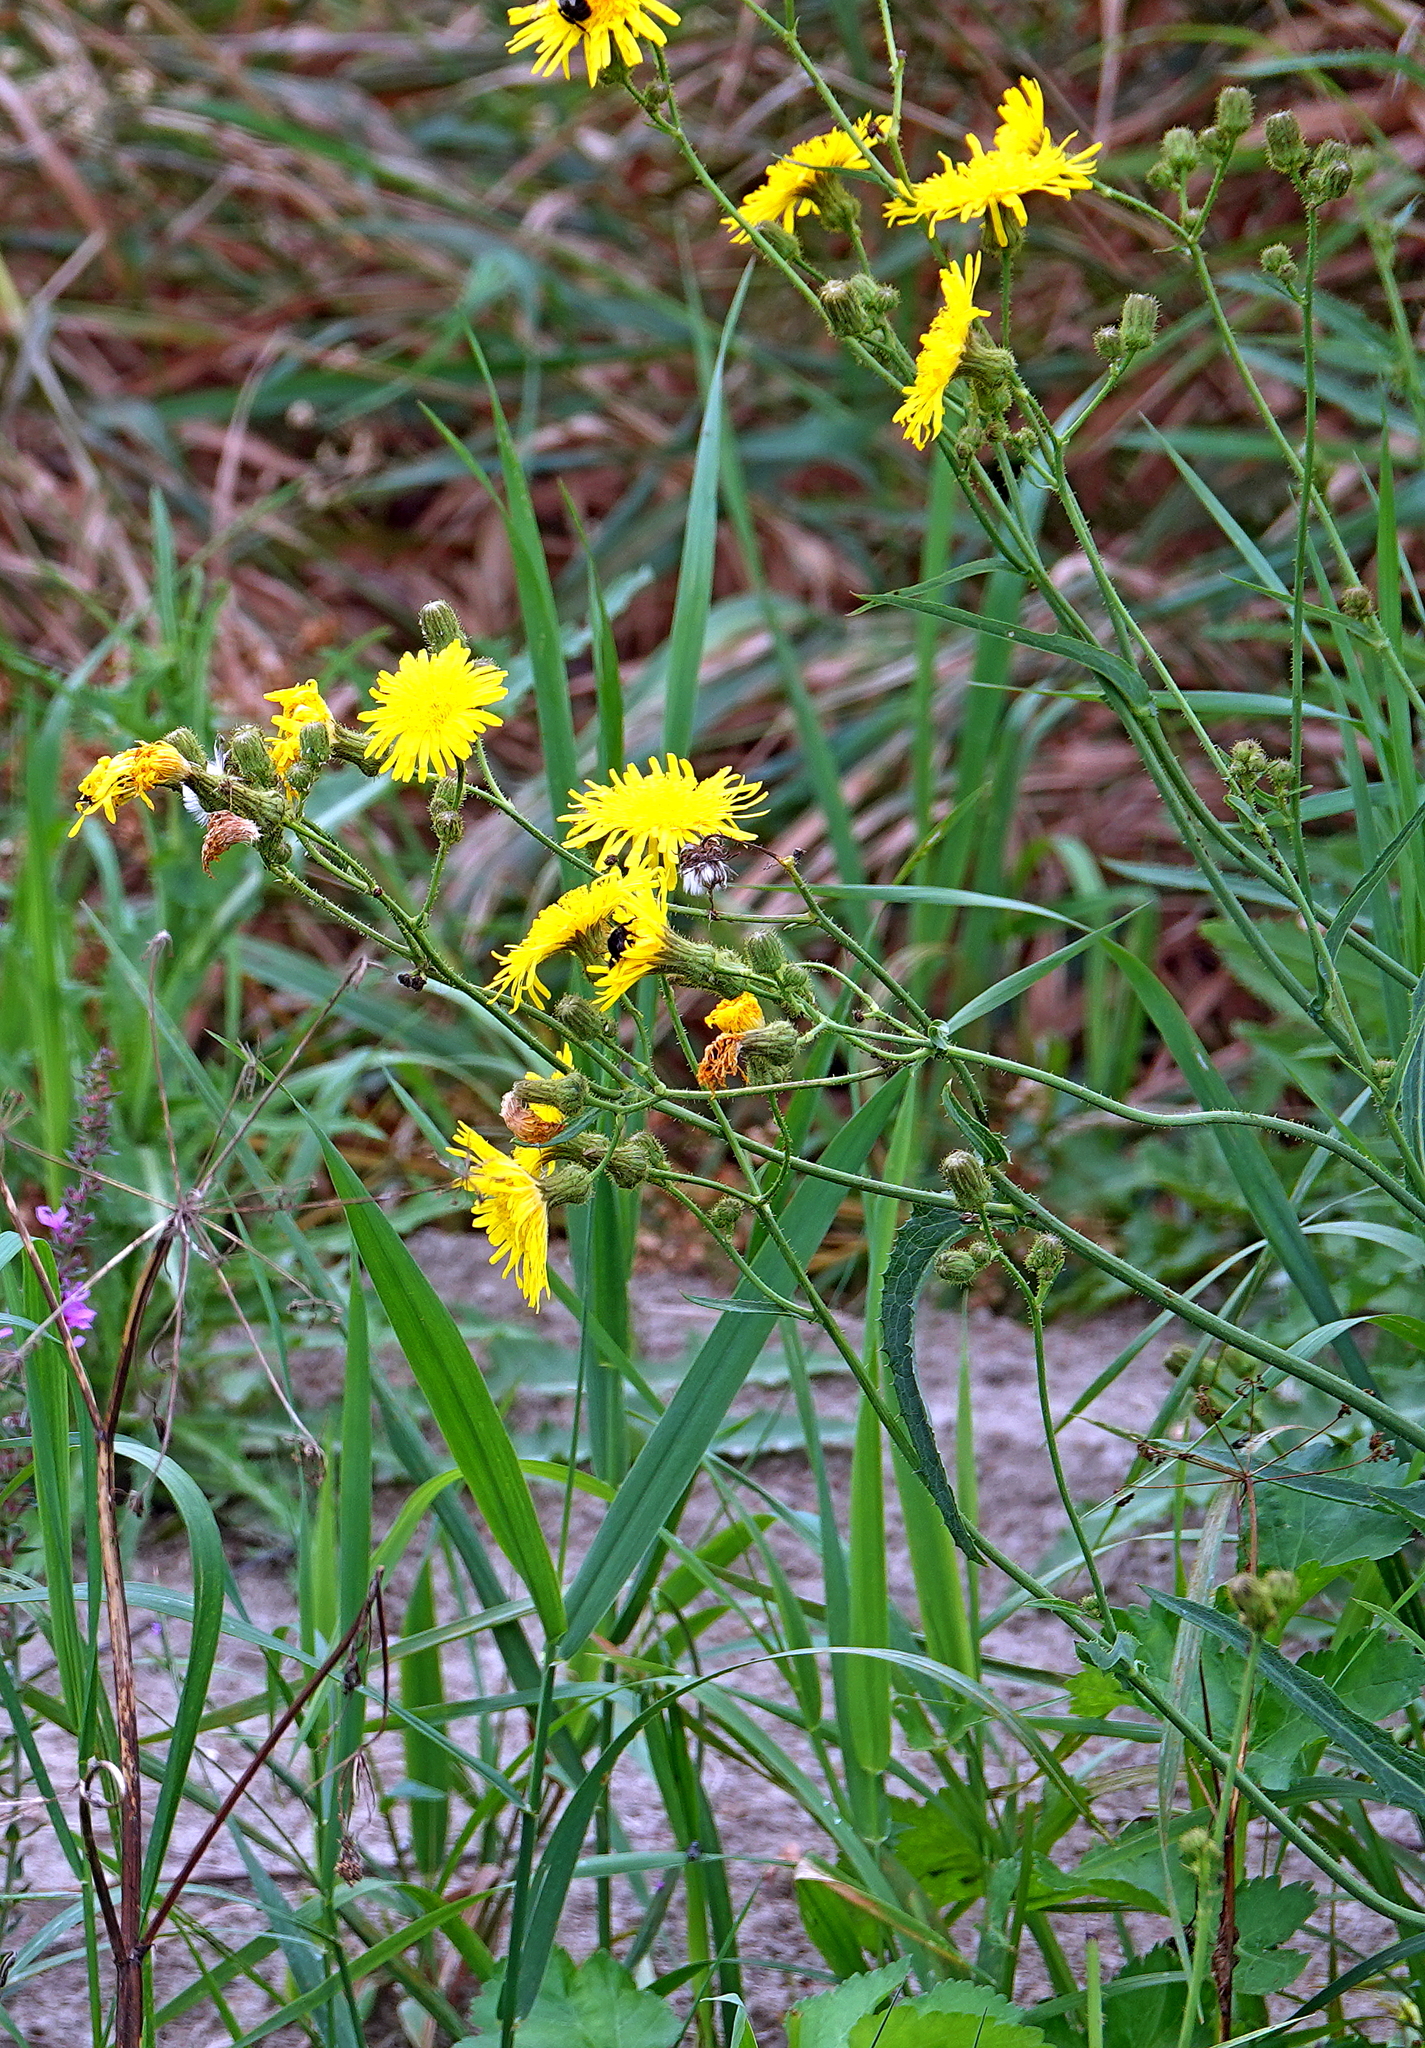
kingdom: Plantae
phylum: Tracheophyta
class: Magnoliopsida
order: Asterales
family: Asteraceae
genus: Sonchus
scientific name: Sonchus arvensis
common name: Perennial sow-thistle
